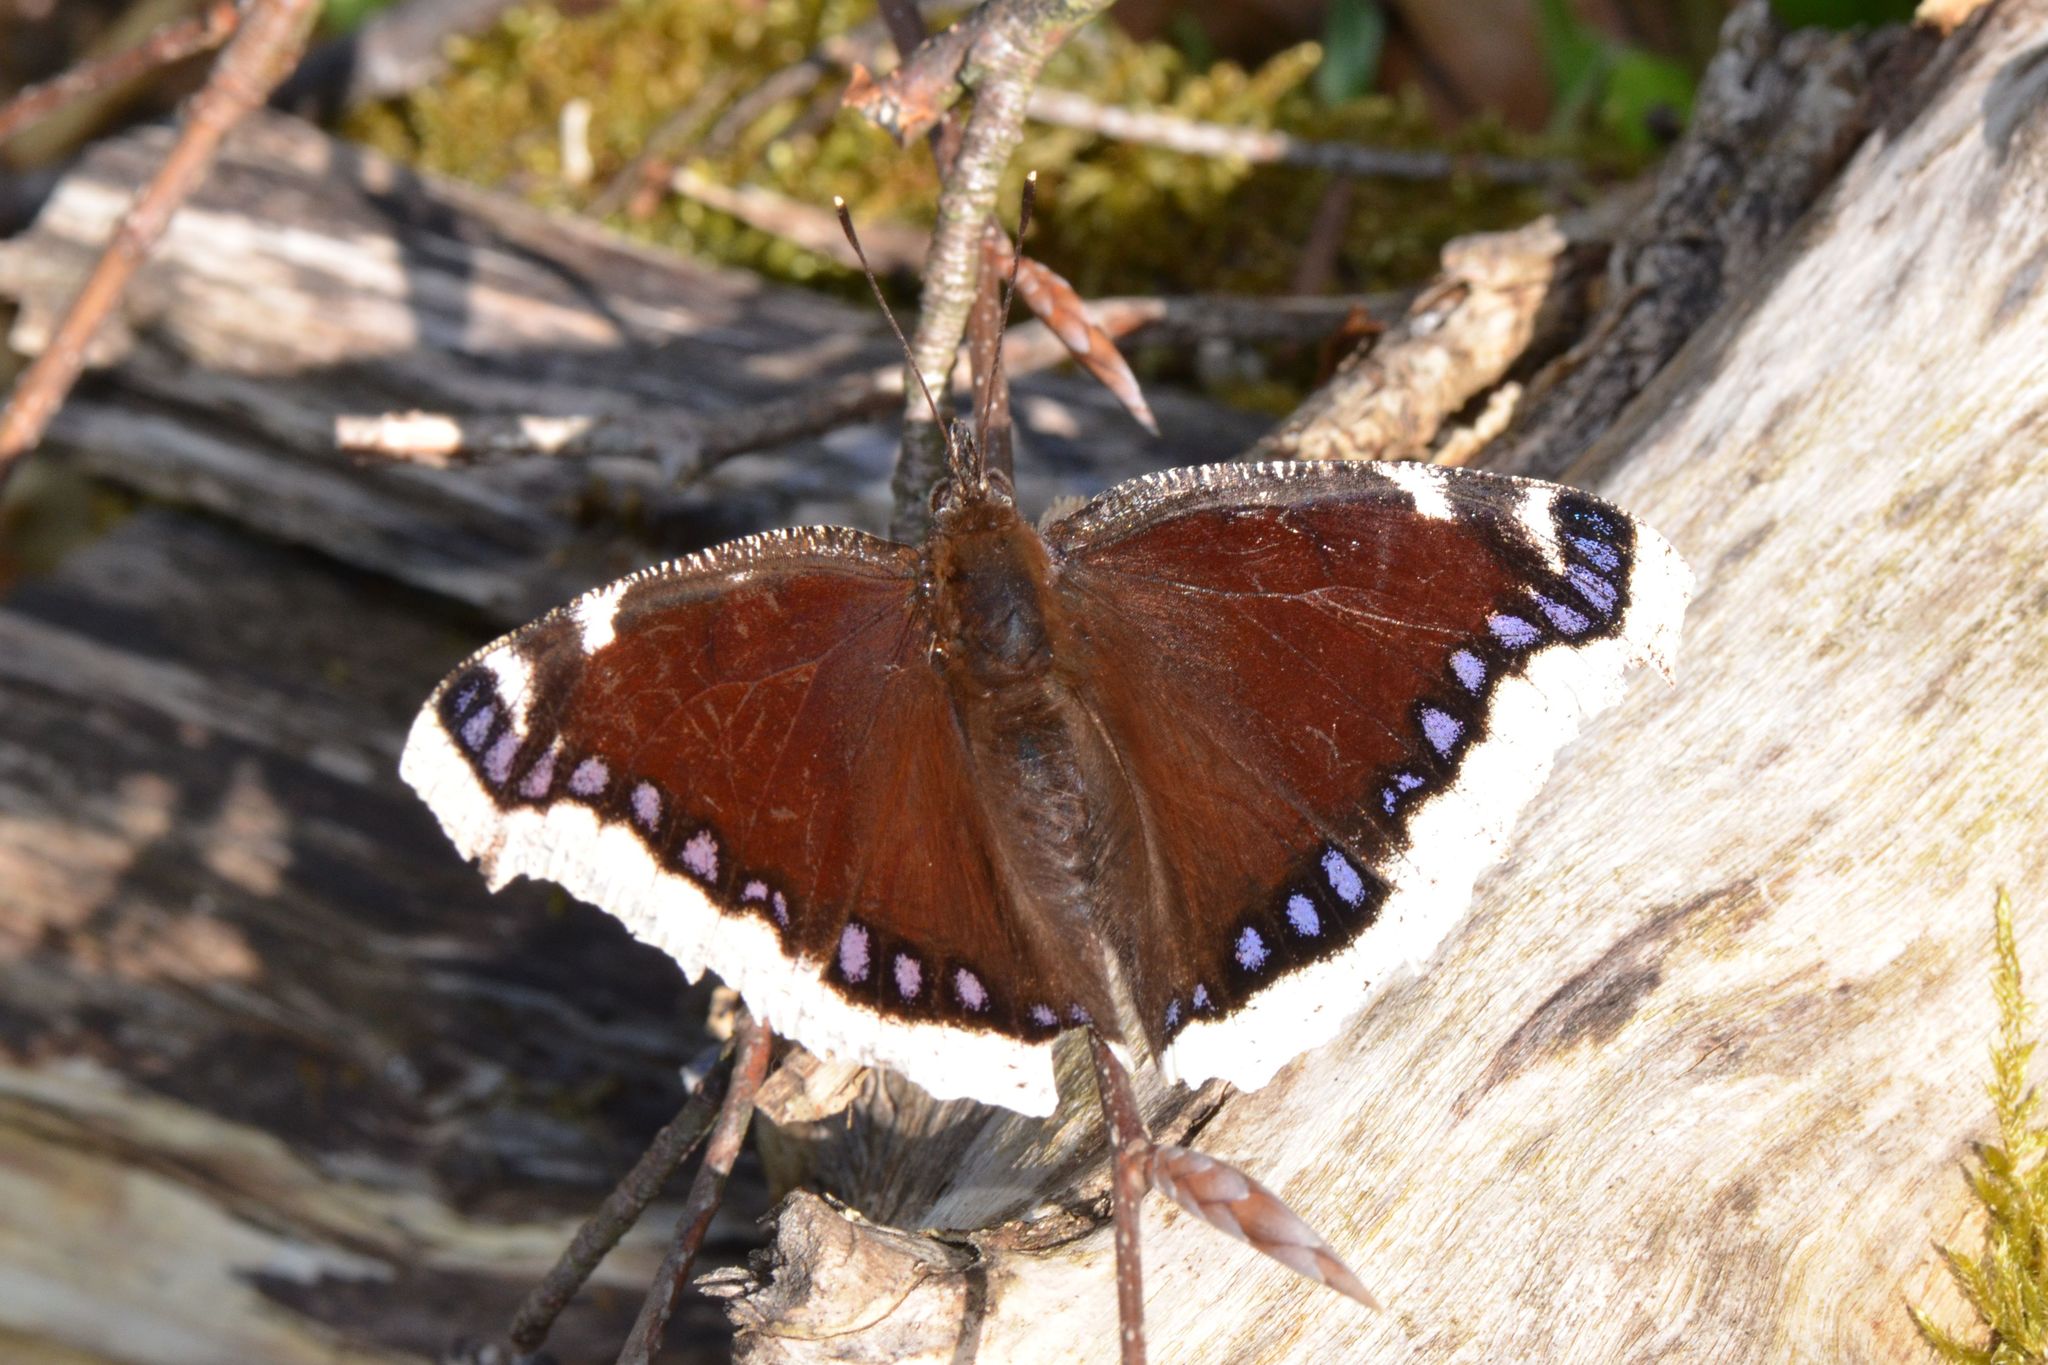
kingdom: Animalia
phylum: Arthropoda
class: Insecta
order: Lepidoptera
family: Nymphalidae
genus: Nymphalis
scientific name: Nymphalis antiopa
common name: Camberwell beauty
